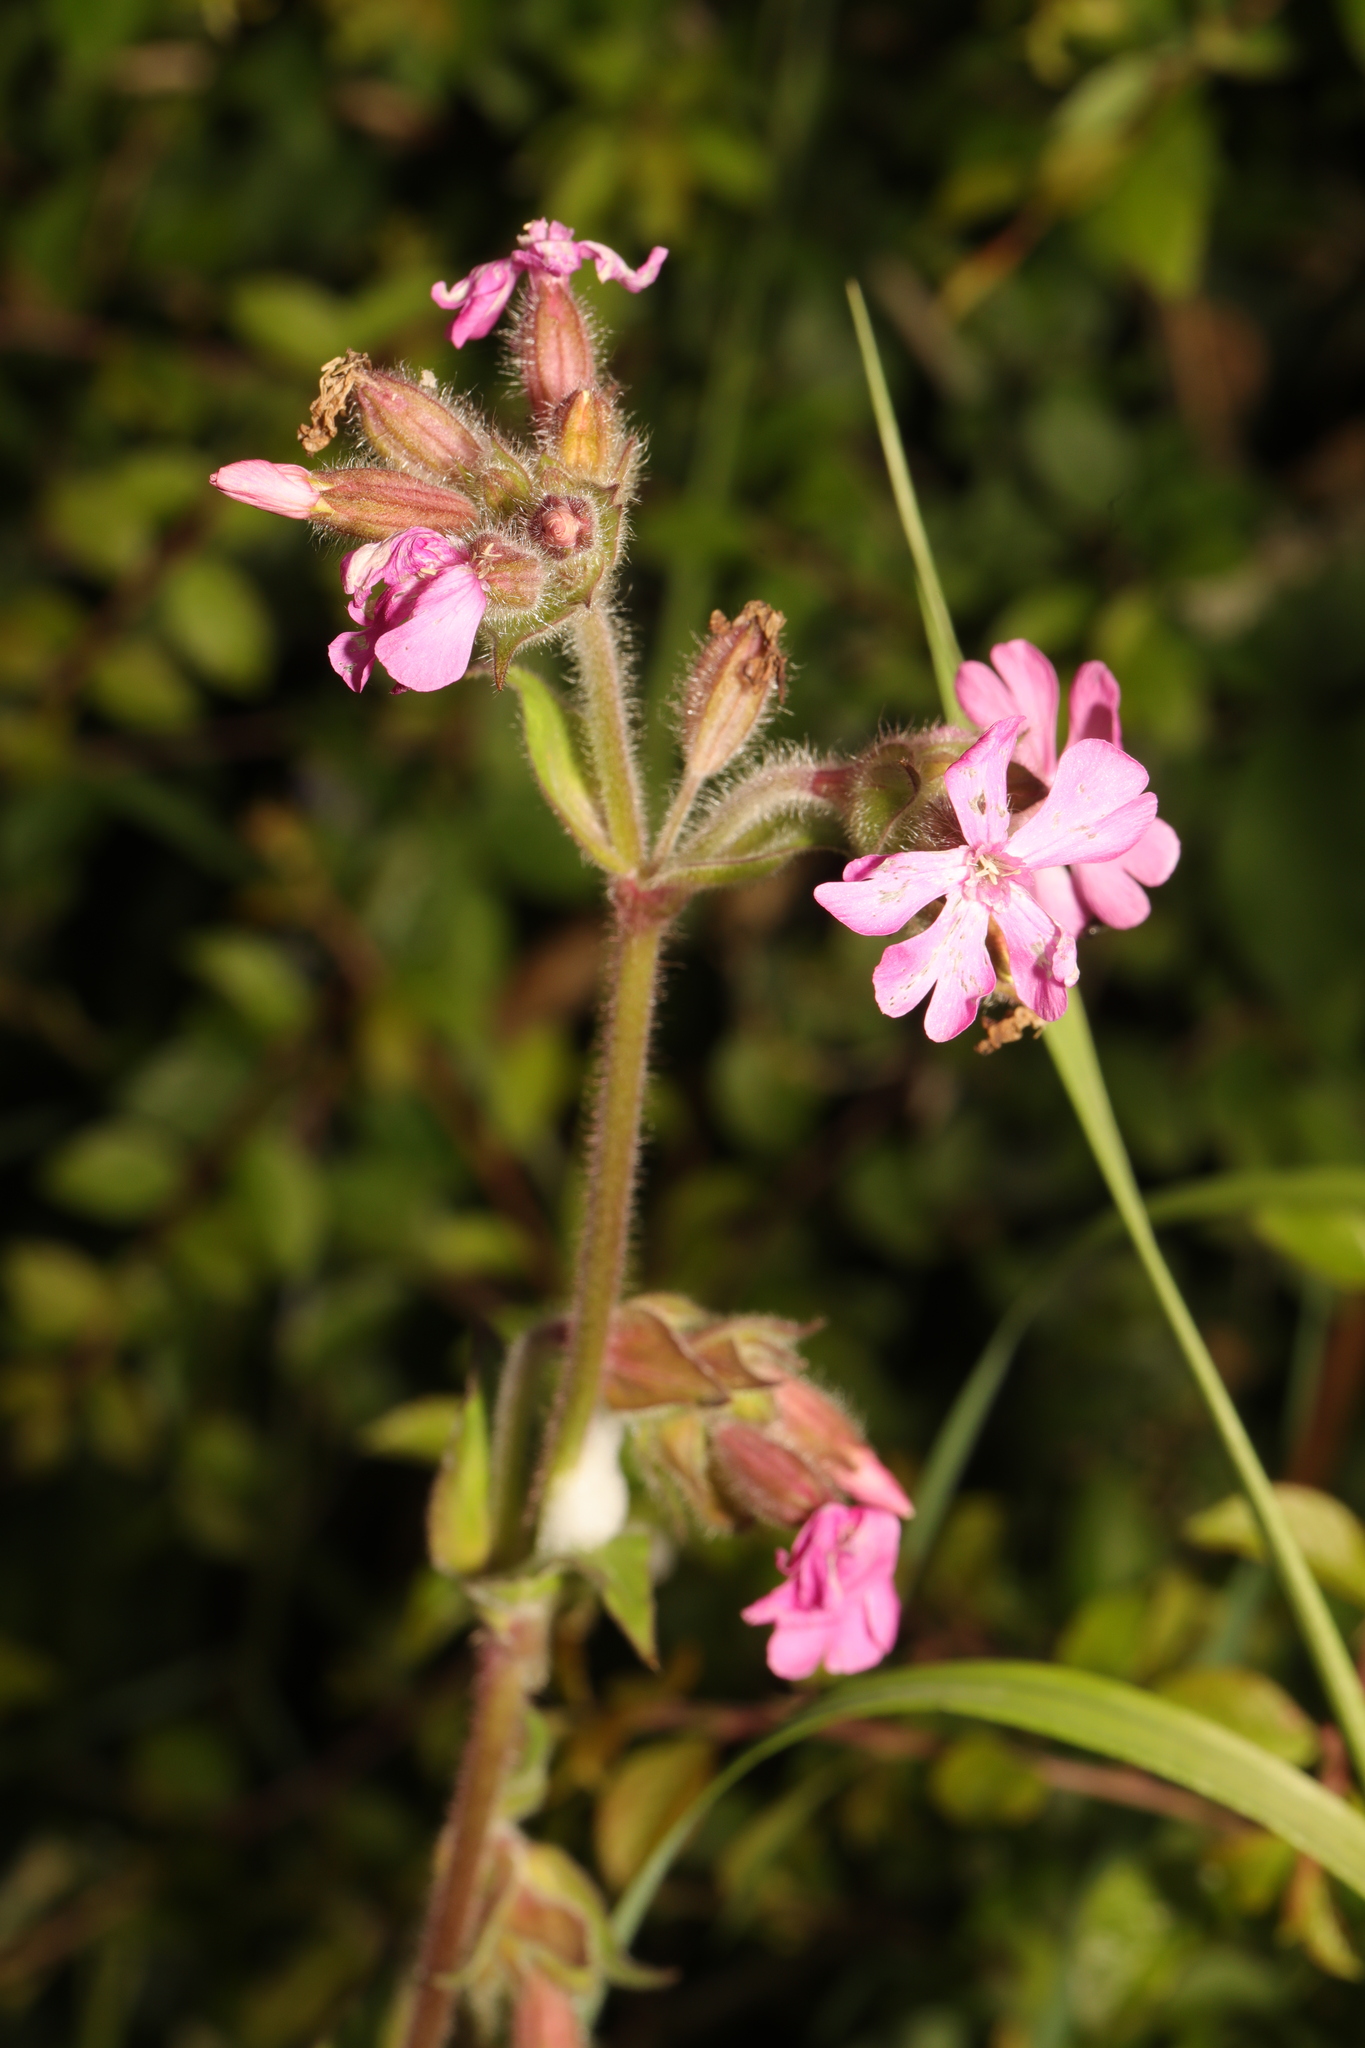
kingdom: Plantae
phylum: Tracheophyta
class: Magnoliopsida
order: Caryophyllales
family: Caryophyllaceae
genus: Silene
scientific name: Silene dioica
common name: Red campion
